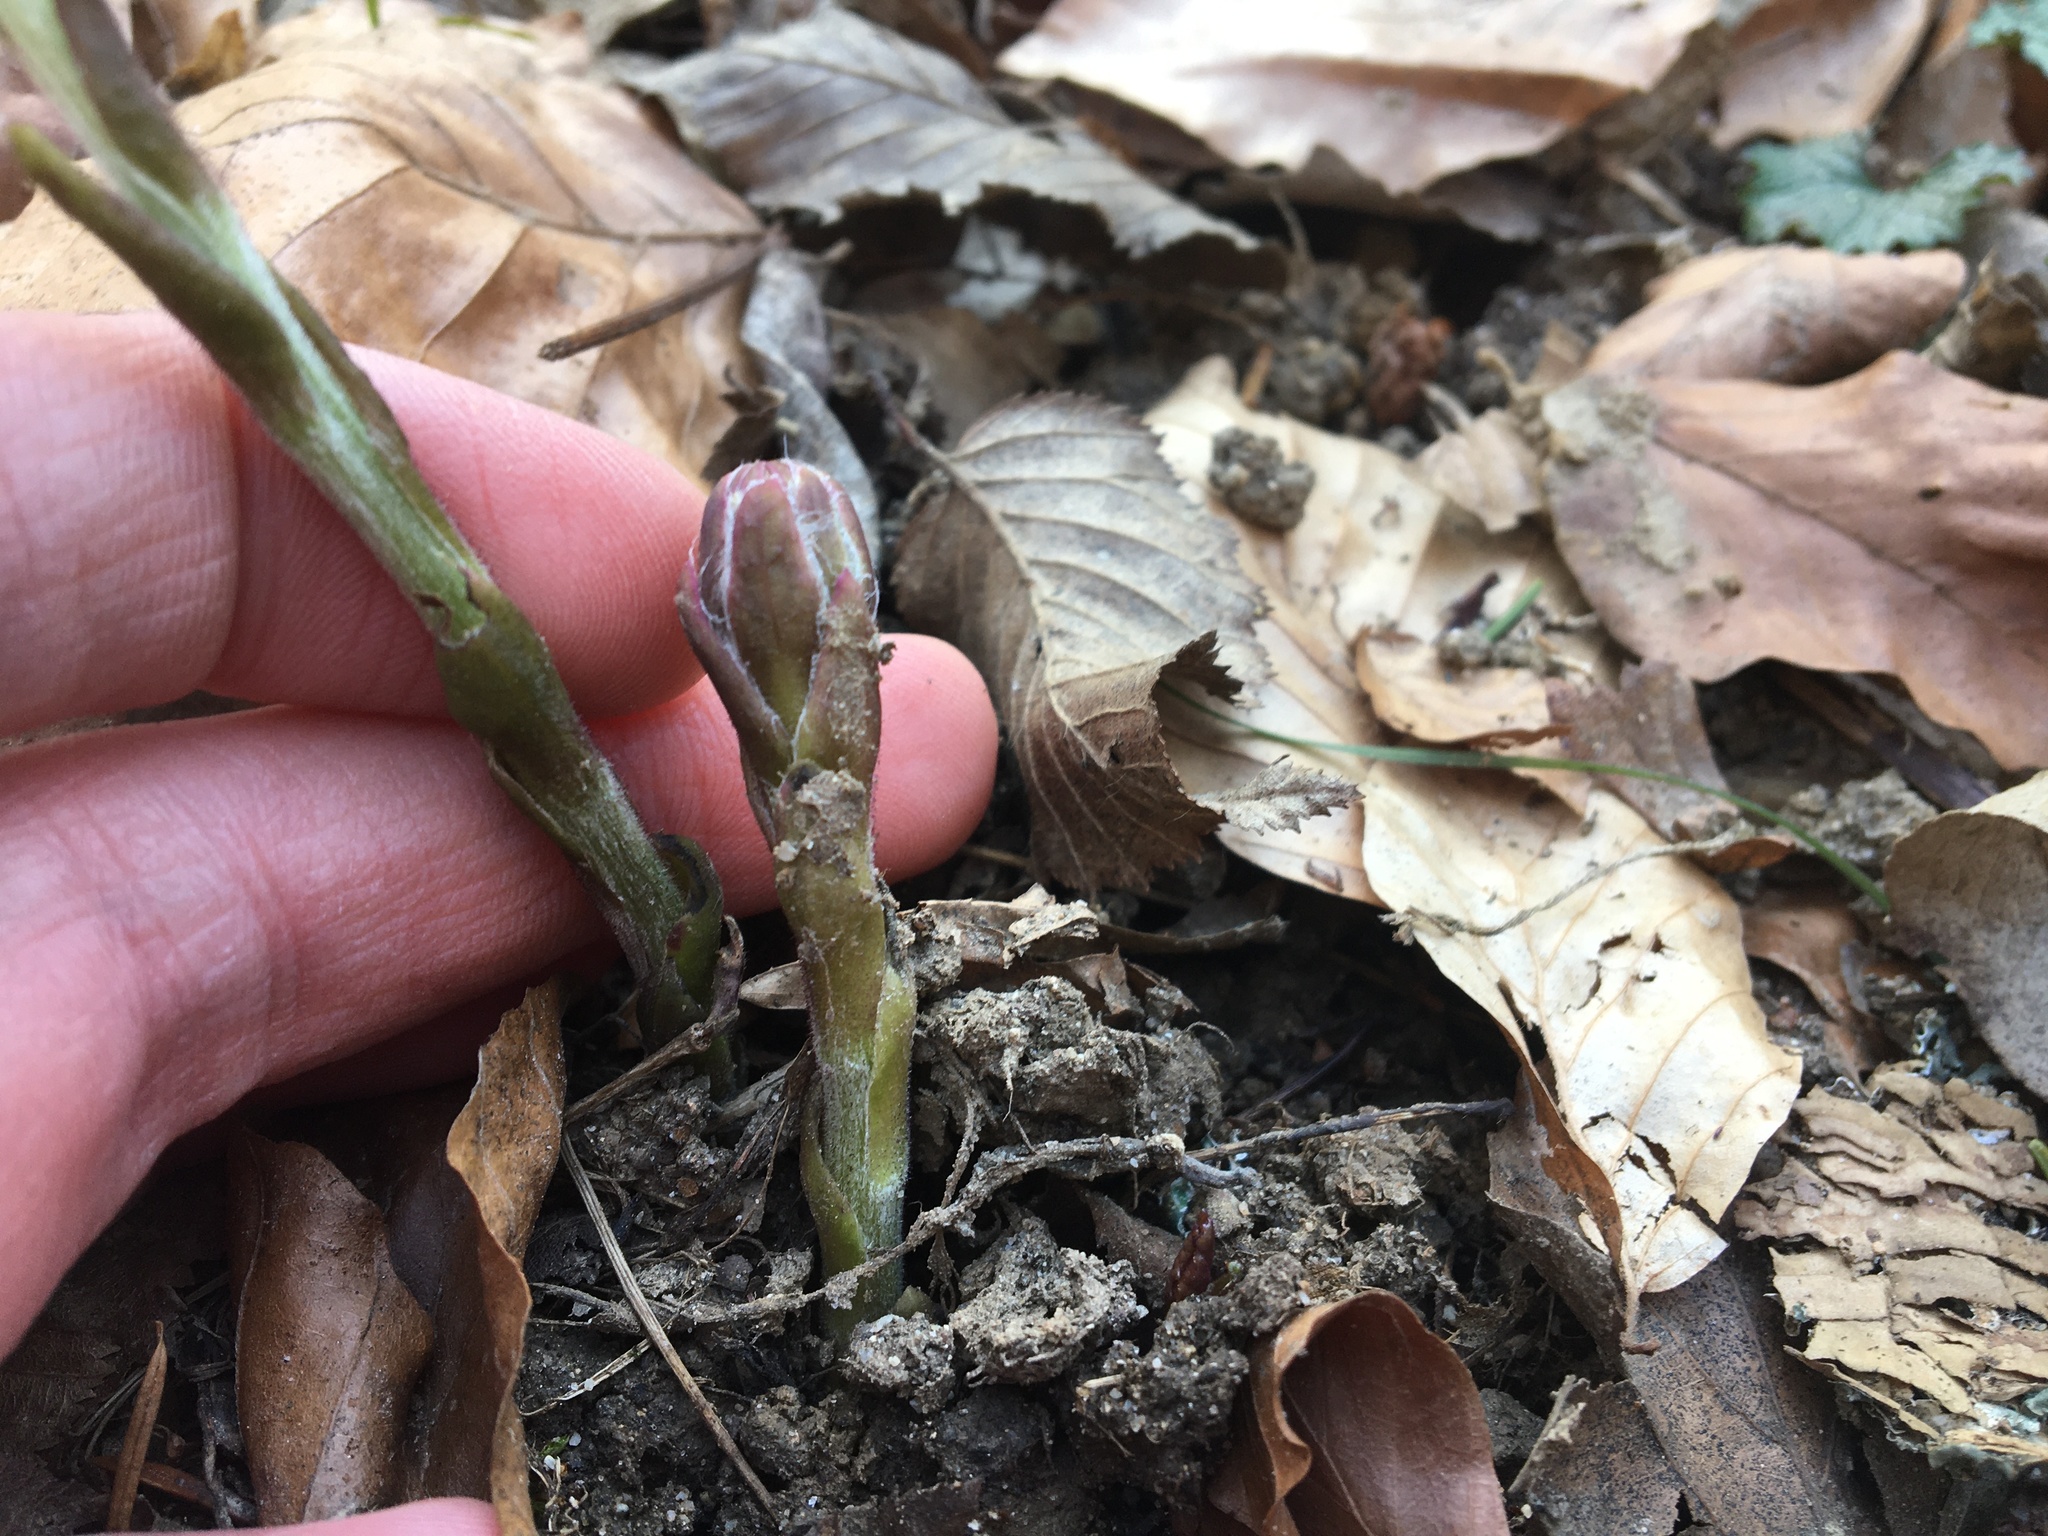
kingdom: Plantae
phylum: Tracheophyta
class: Magnoliopsida
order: Asterales
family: Asteraceae
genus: Tussilago
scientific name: Tussilago farfara
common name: Coltsfoot
